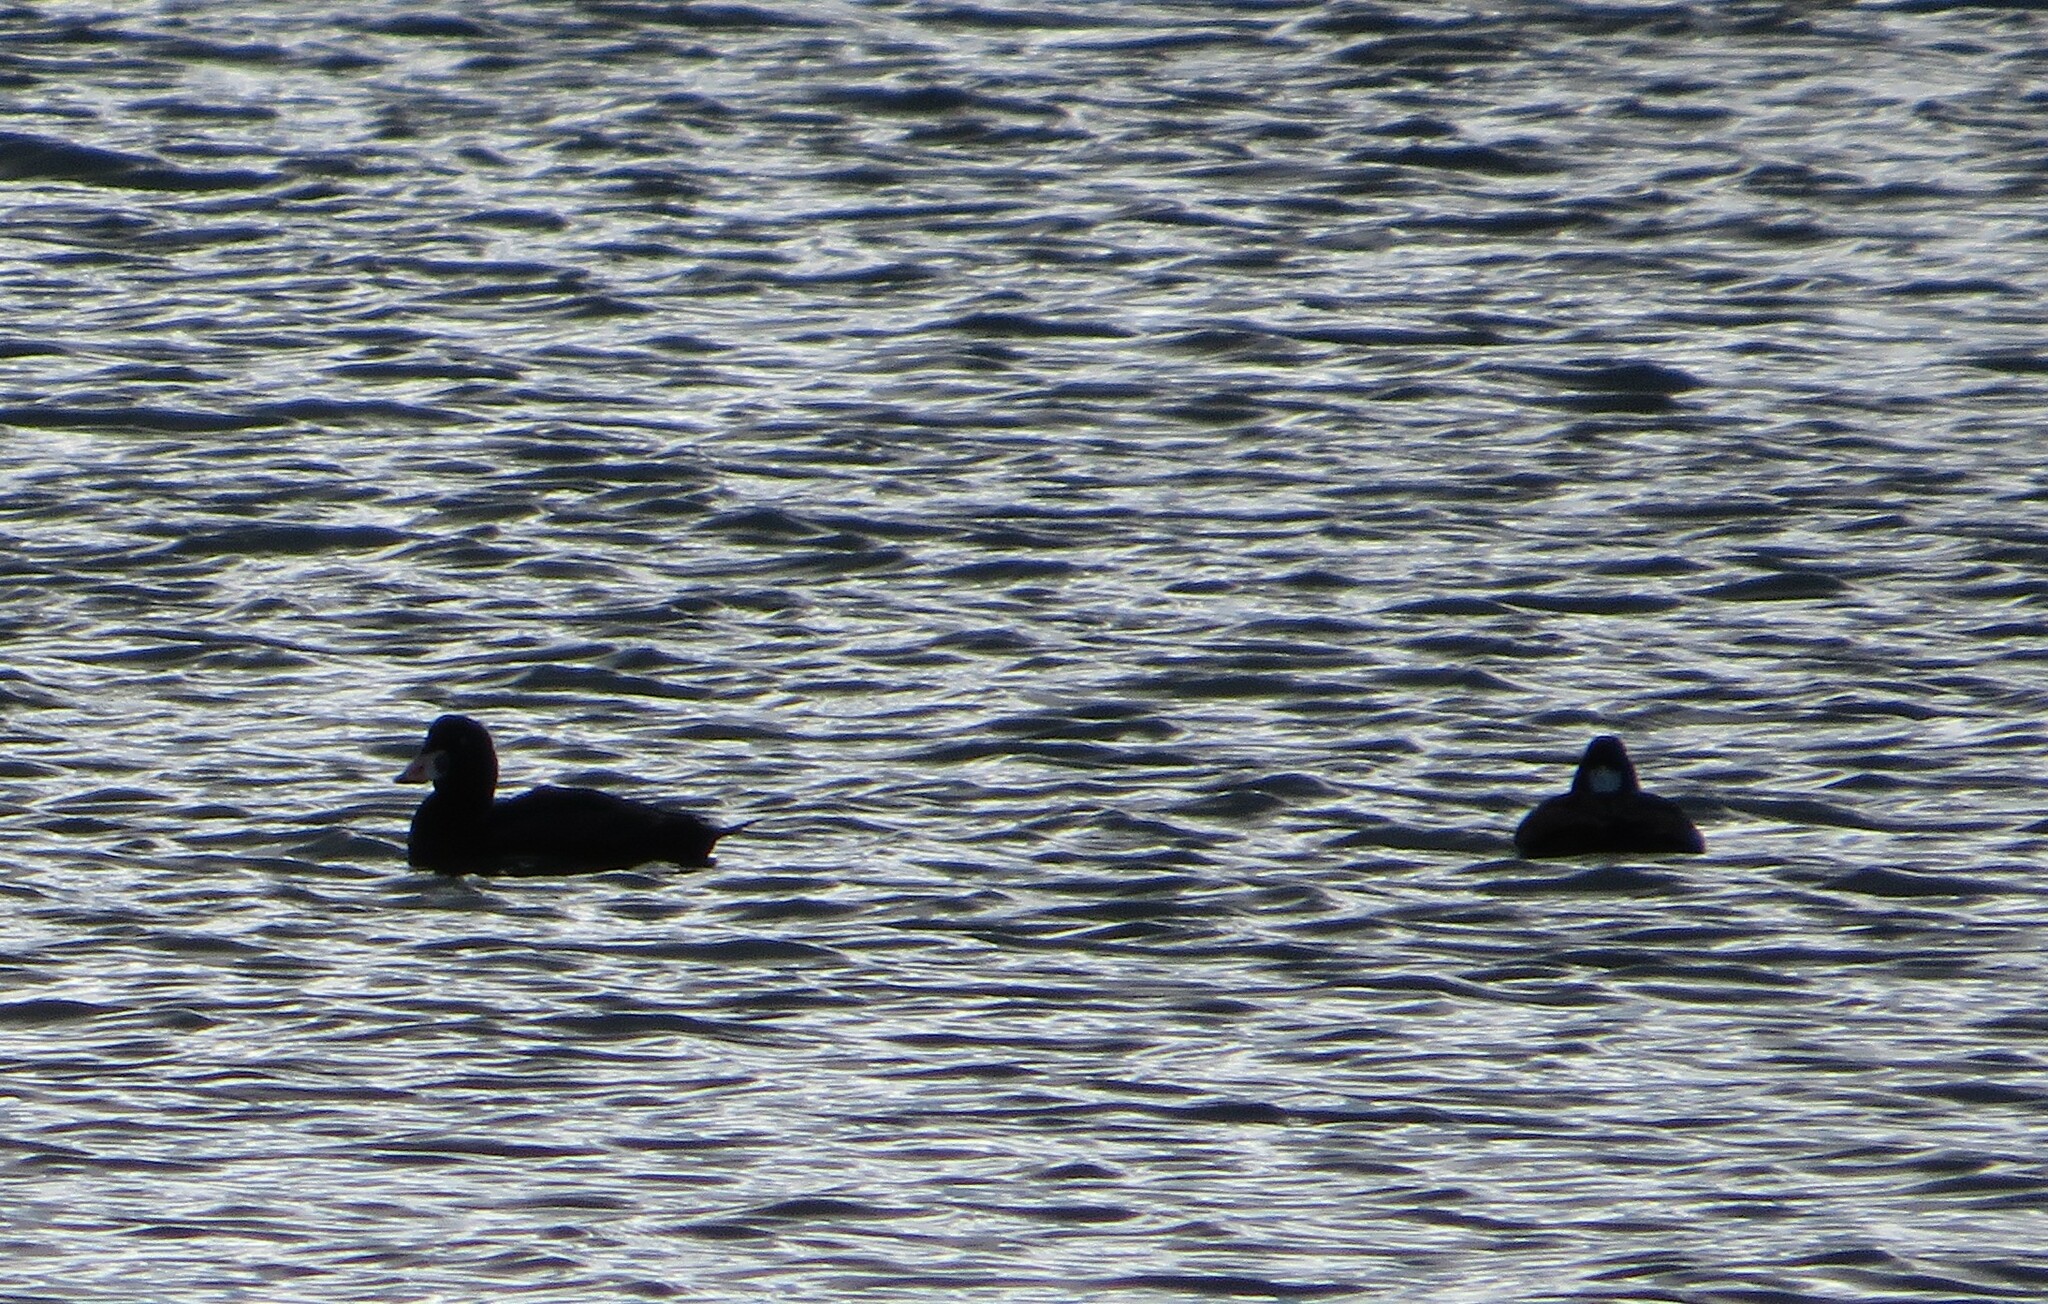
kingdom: Animalia
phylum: Chordata
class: Aves
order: Anseriformes
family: Anatidae
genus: Melanitta
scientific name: Melanitta perspicillata
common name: Surf scoter
